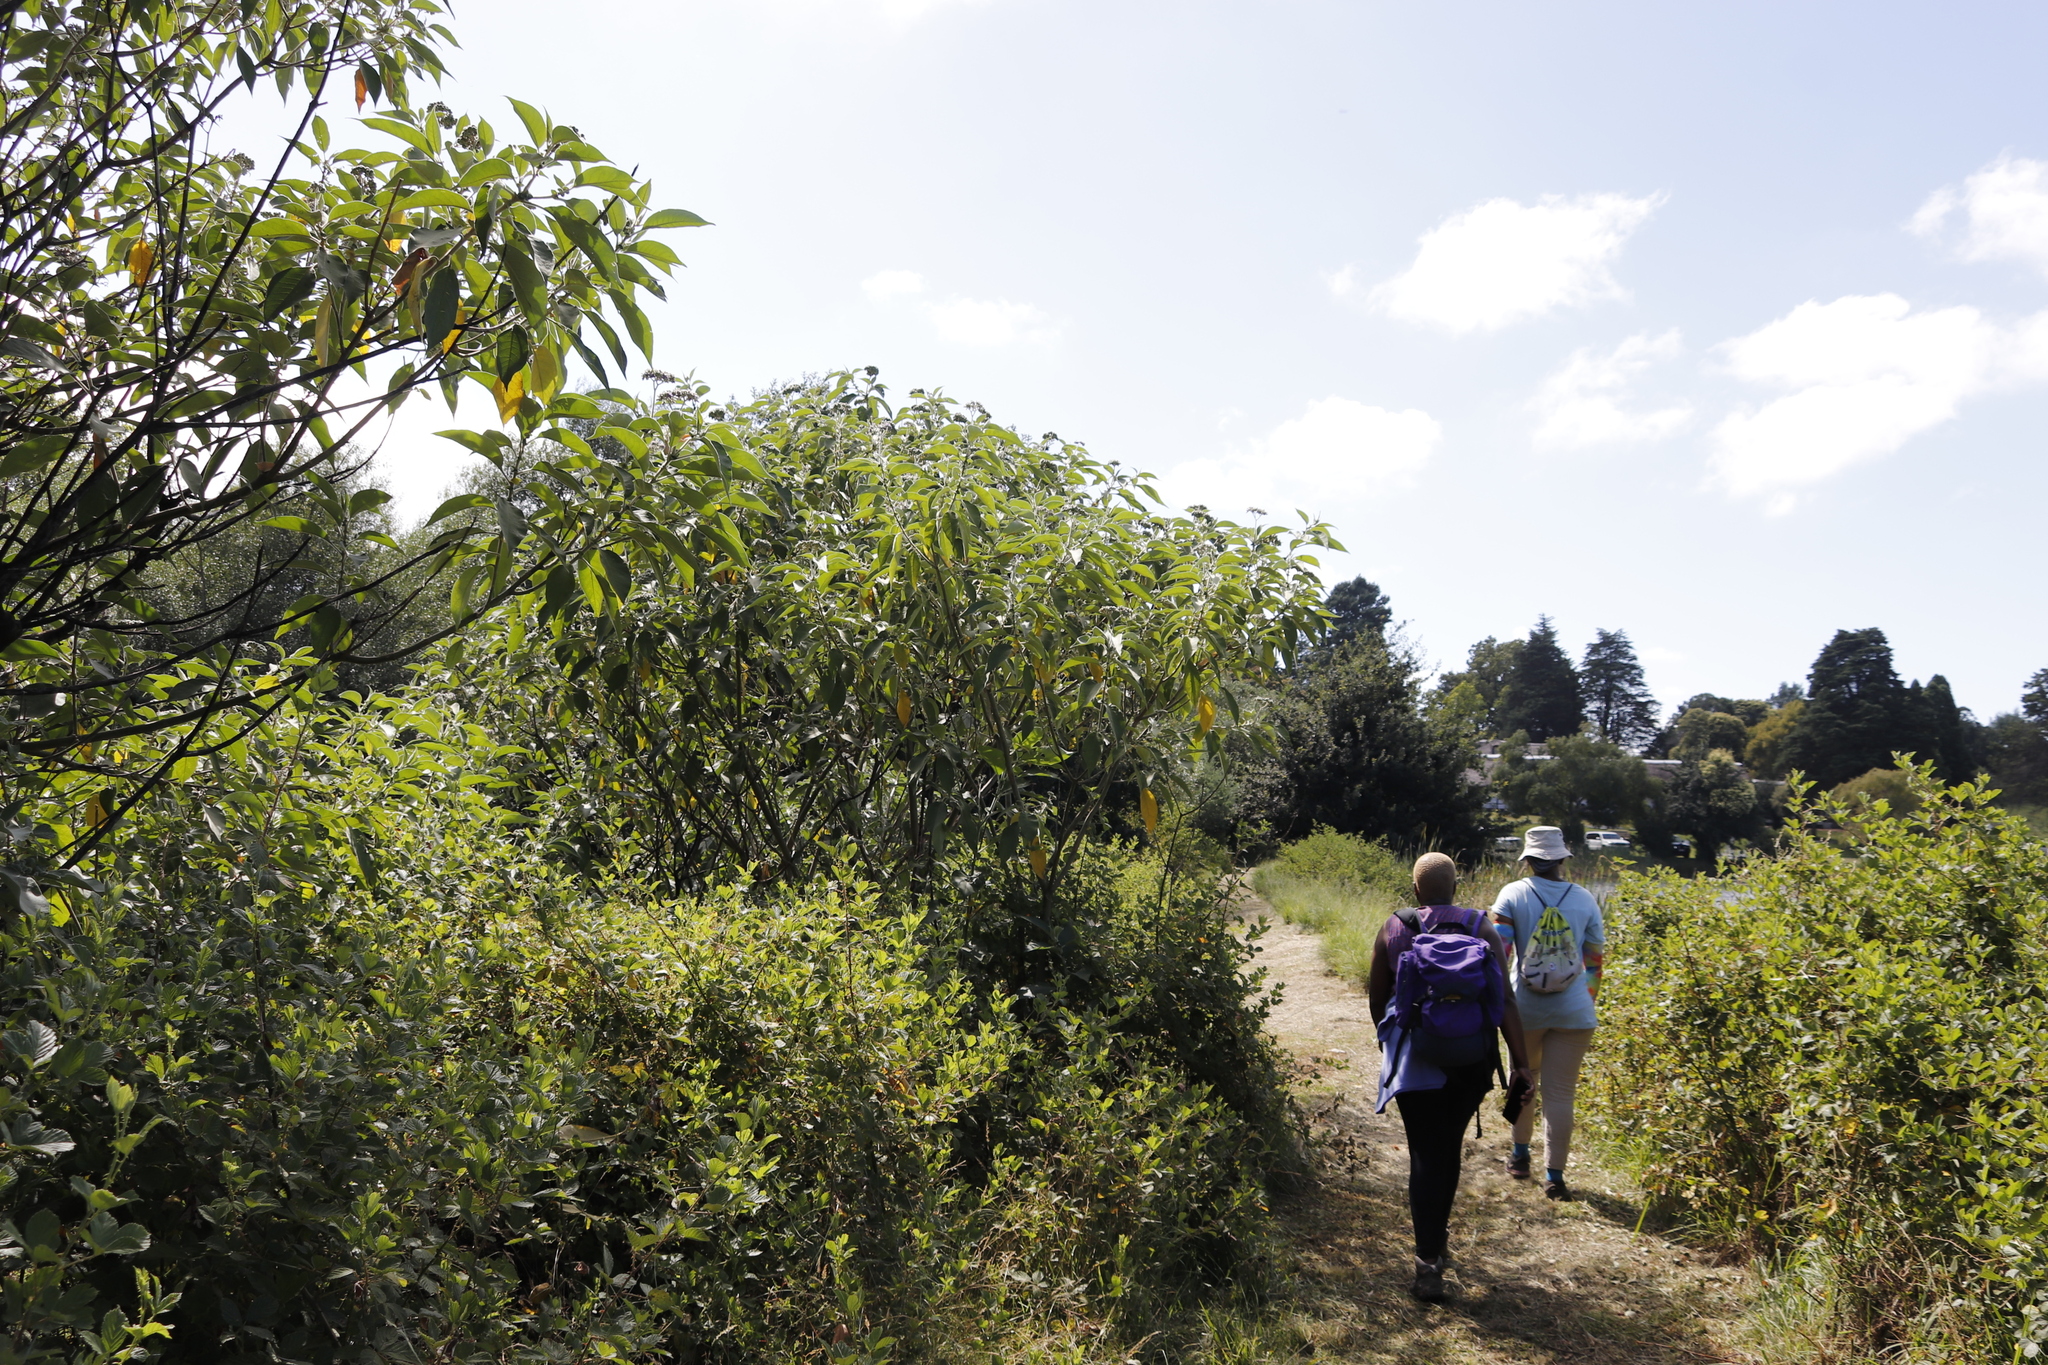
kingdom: Plantae
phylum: Tracheophyta
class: Magnoliopsida
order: Solanales
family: Solanaceae
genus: Solanum
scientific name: Solanum mauritianum
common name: Earleaf nightshade
